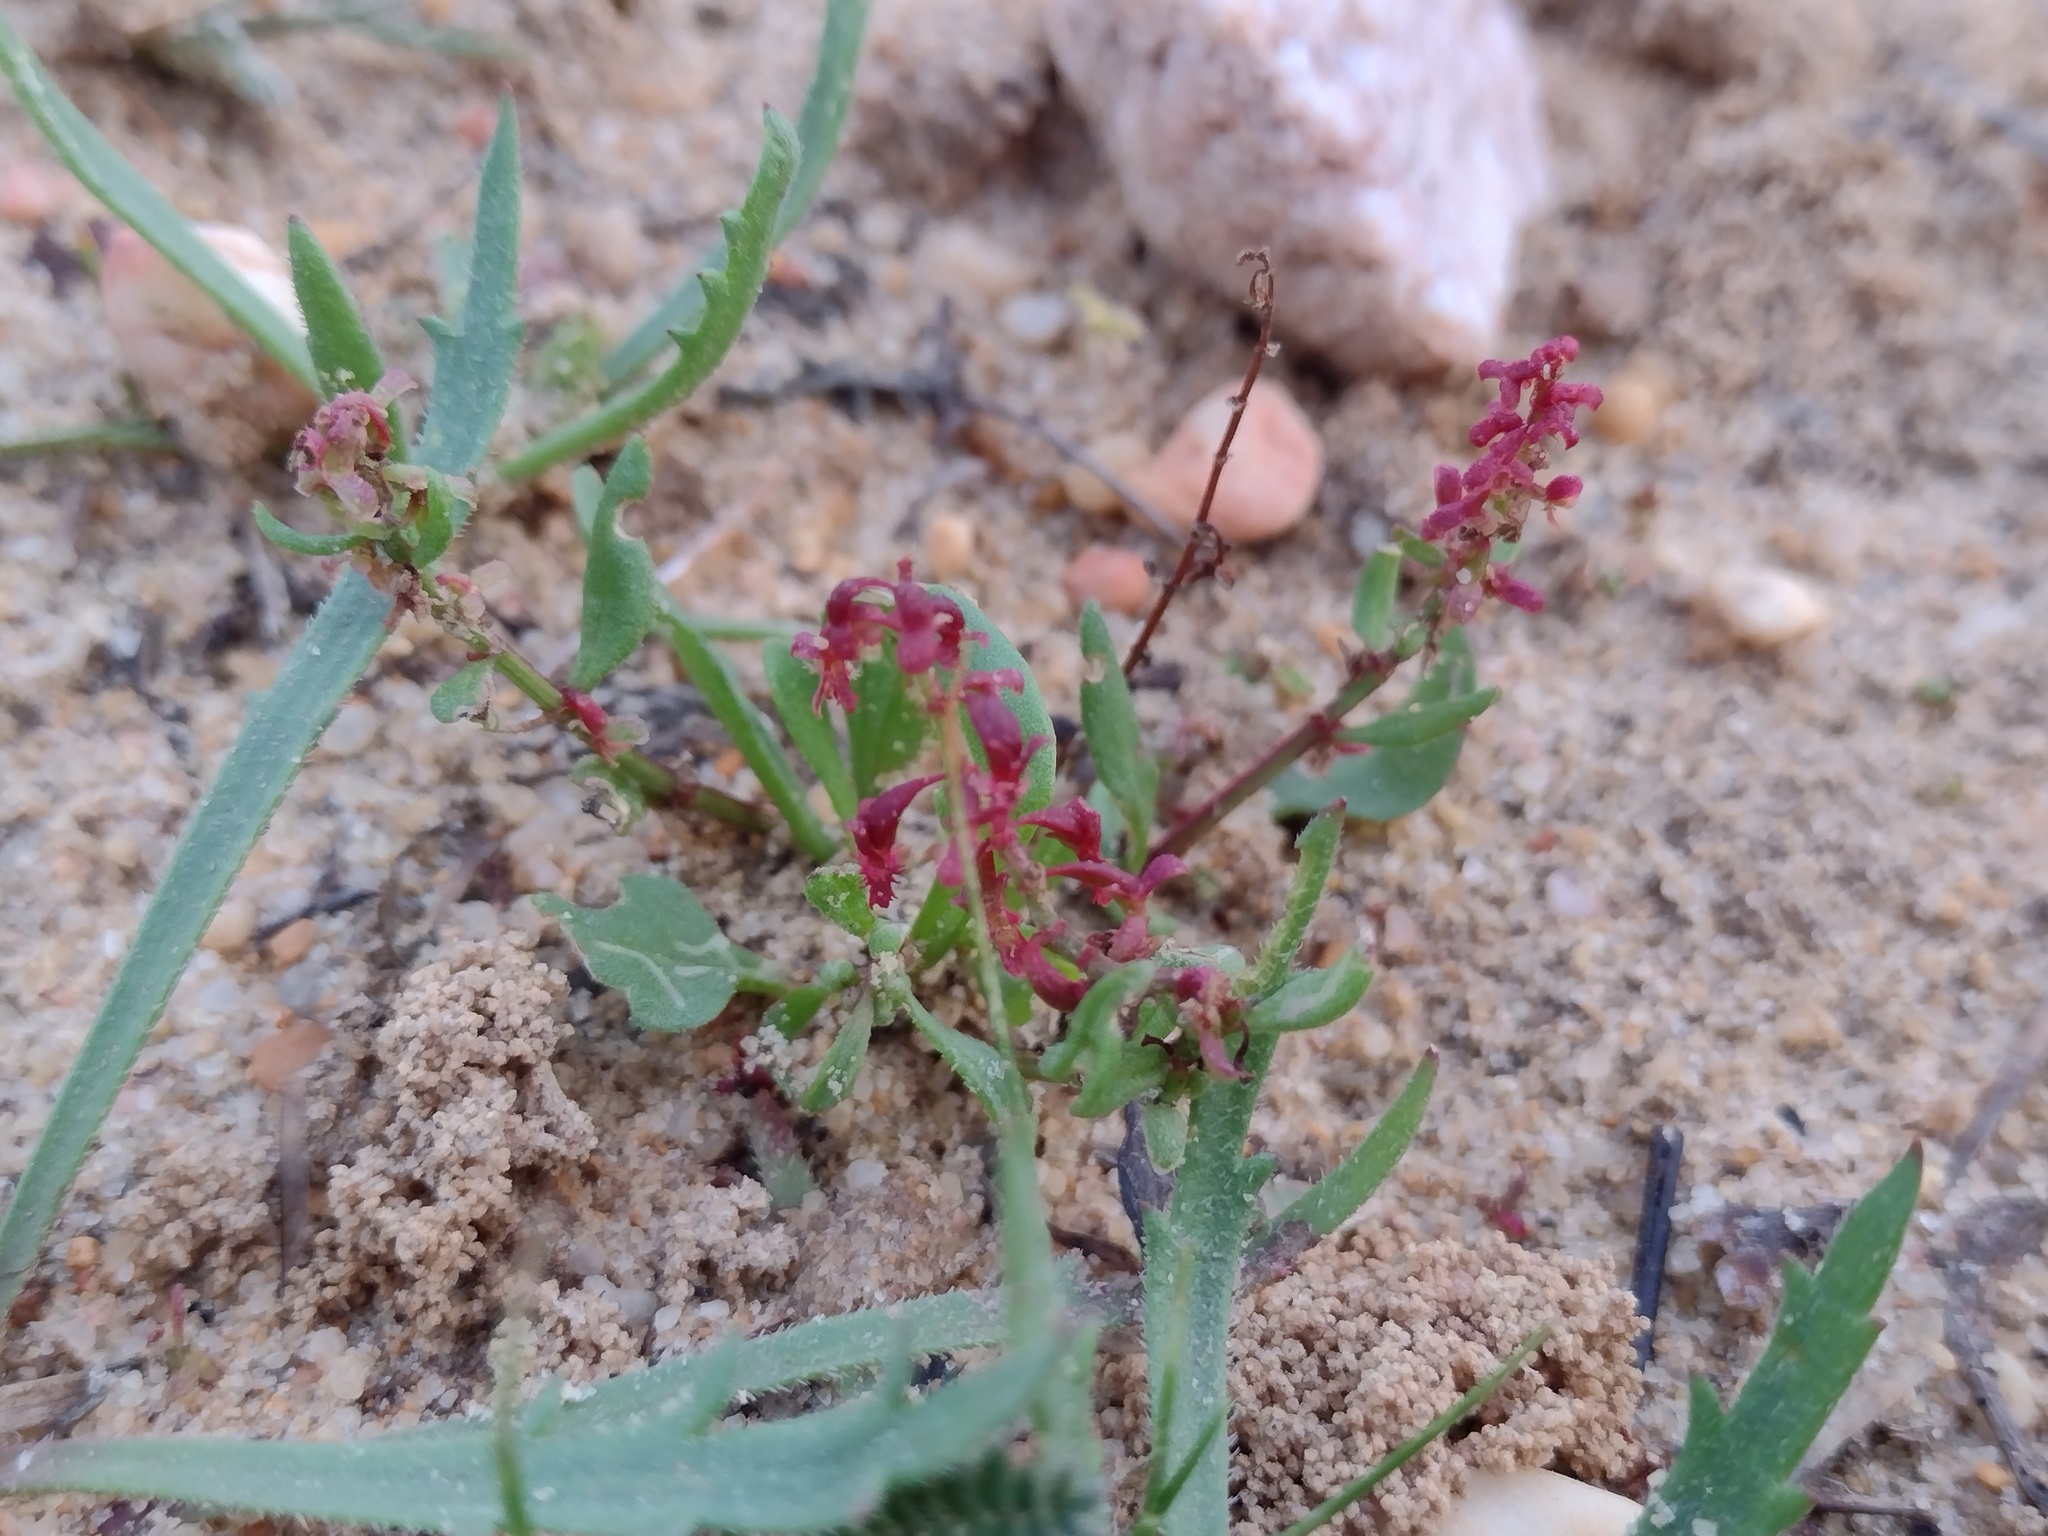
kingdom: Plantae
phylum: Tracheophyta
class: Magnoliopsida
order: Caryophyllales
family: Polygonaceae
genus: Rumex
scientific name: Rumex bucephalophorus
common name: Red dock
